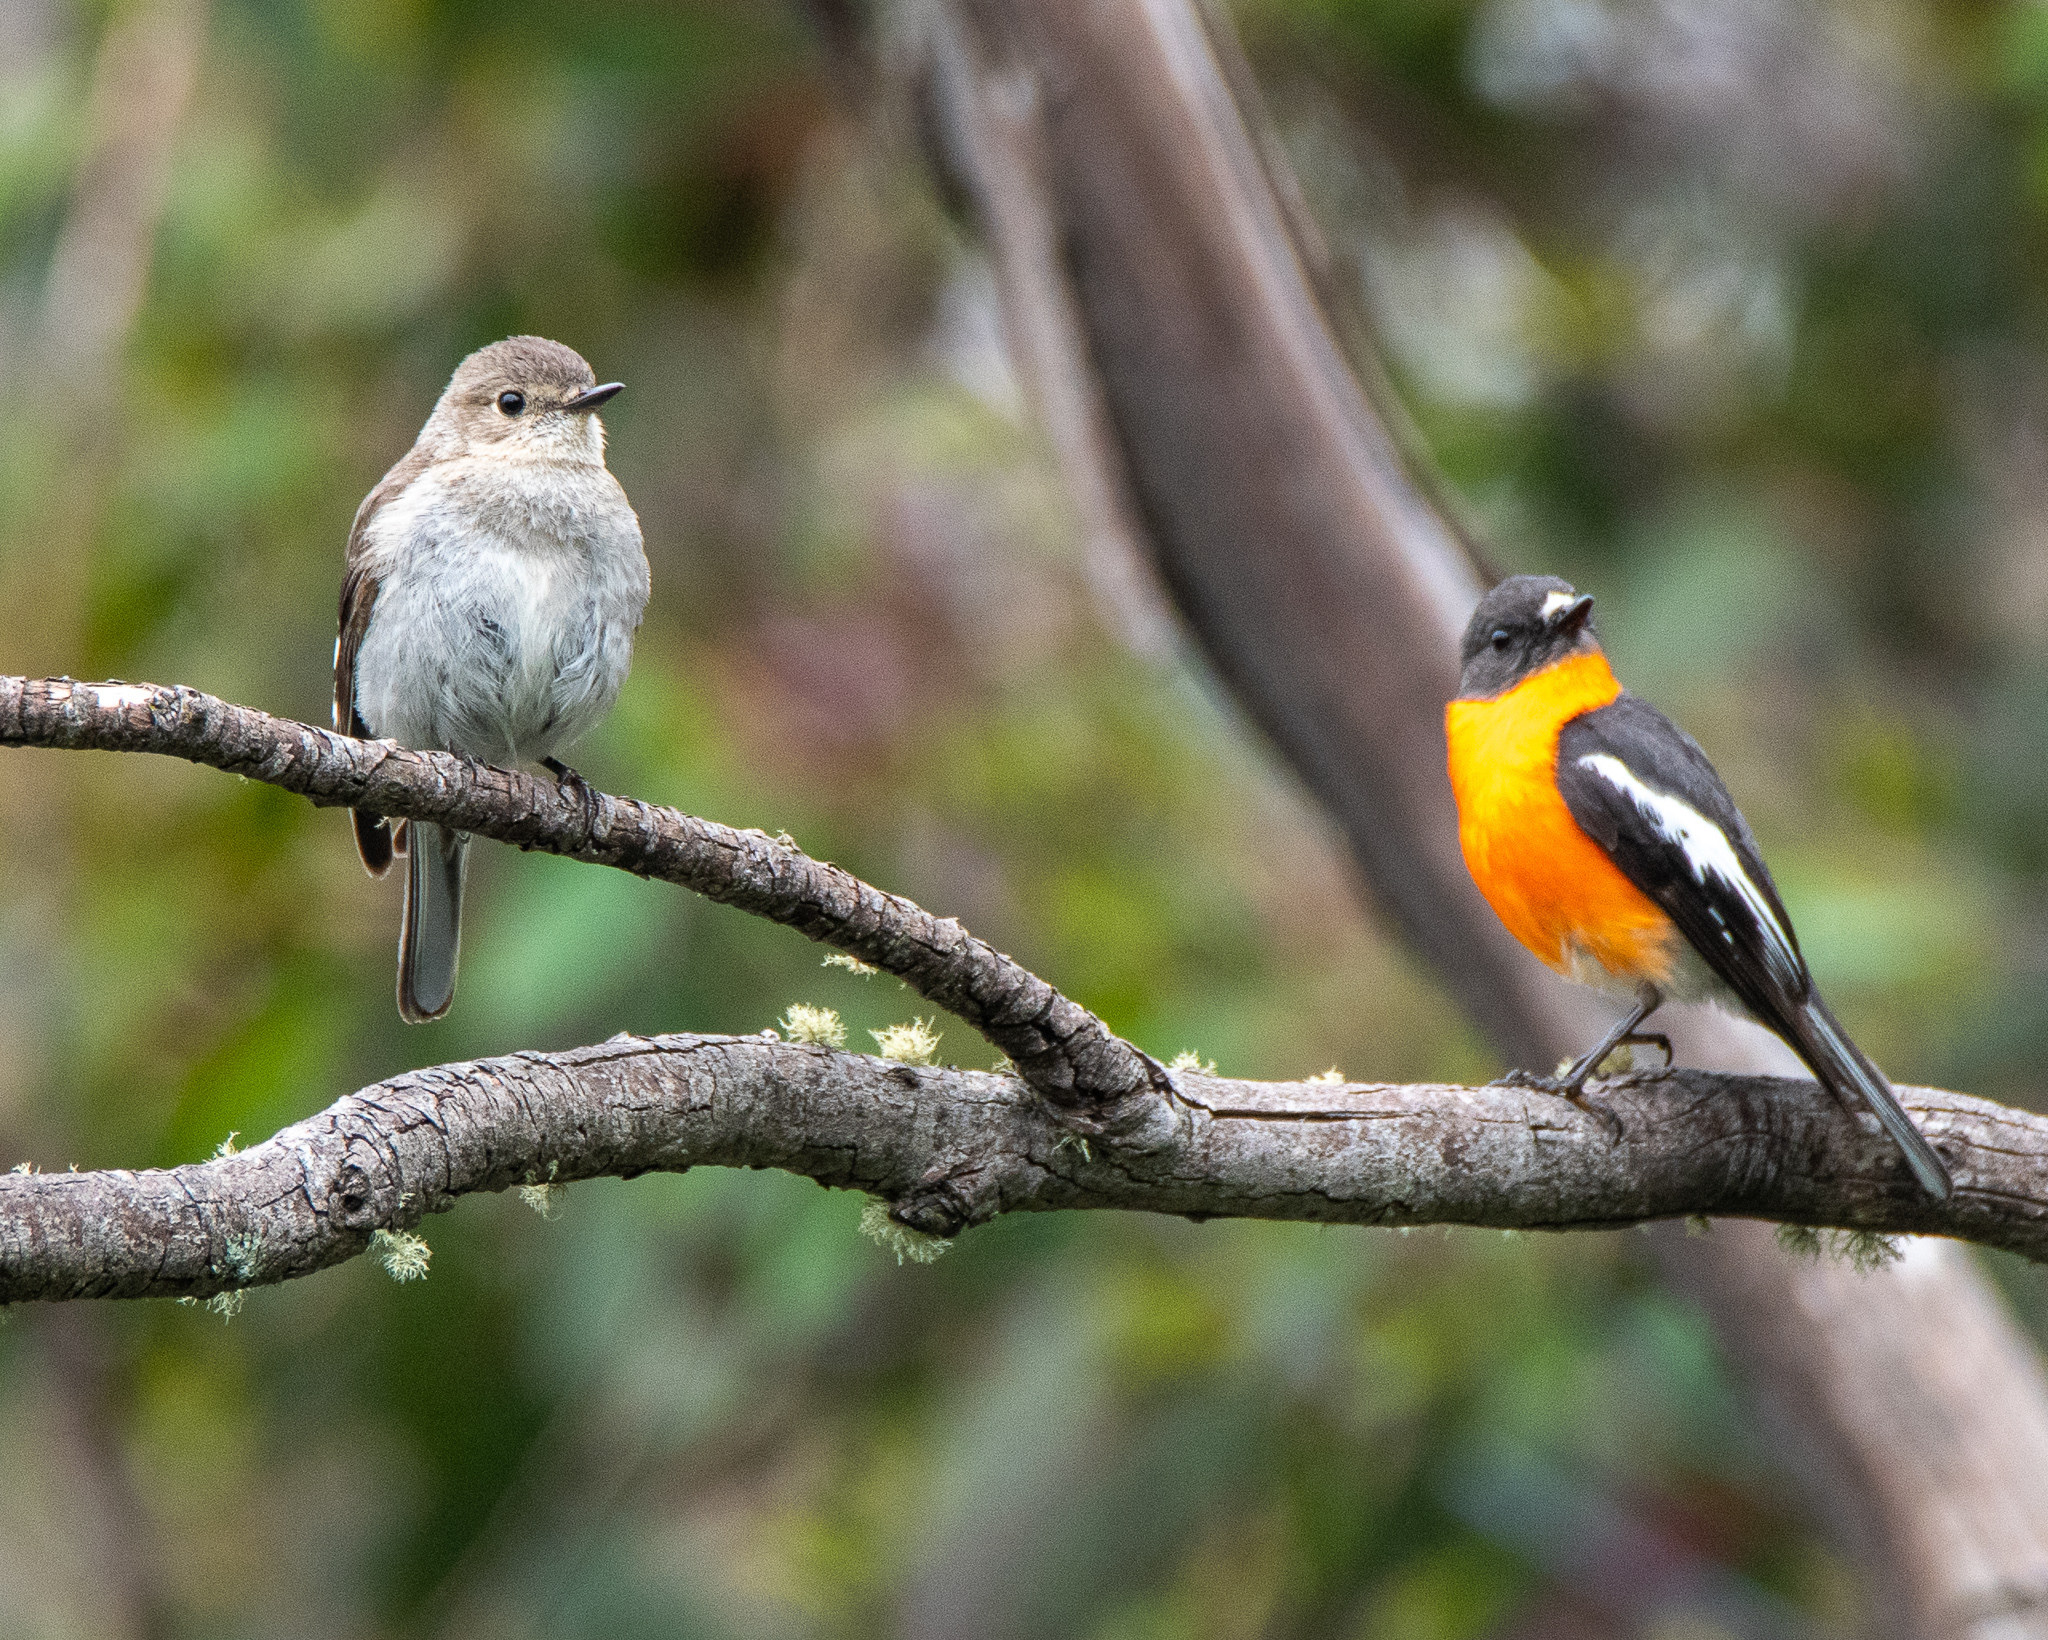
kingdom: Animalia
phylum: Chordata
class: Aves
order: Passeriformes
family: Petroicidae
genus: Petroica
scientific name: Petroica phoenicea
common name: Flame robin
